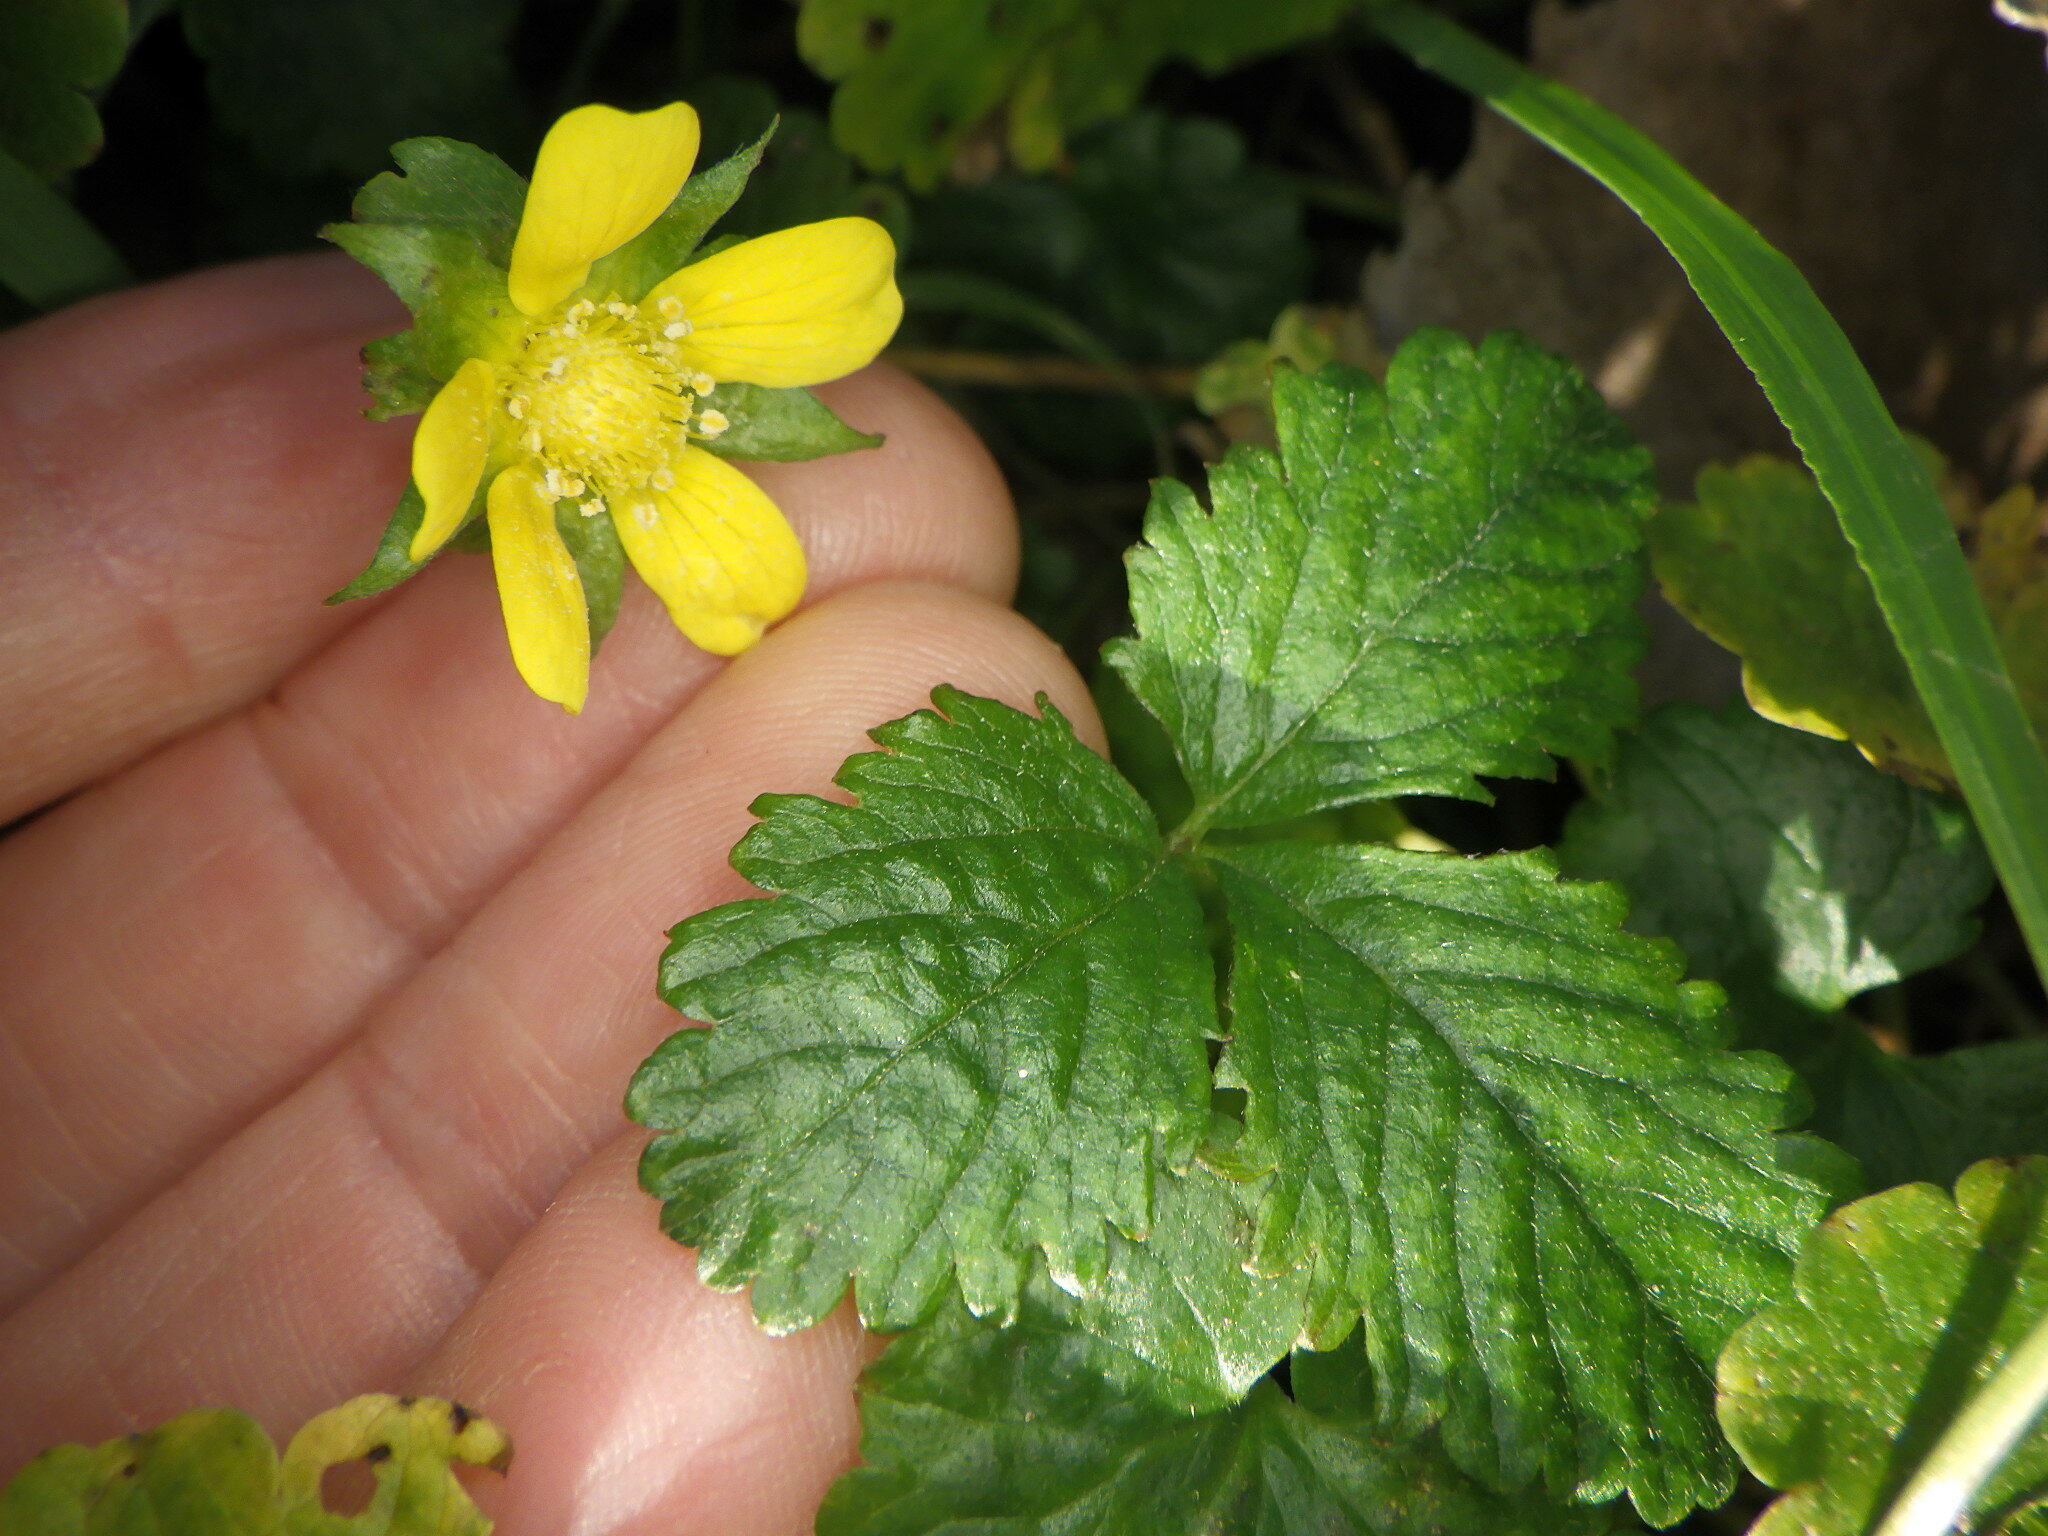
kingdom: Plantae
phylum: Tracheophyta
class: Magnoliopsida
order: Rosales
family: Rosaceae
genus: Potentilla
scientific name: Potentilla indica
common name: Yellow-flowered strawberry
